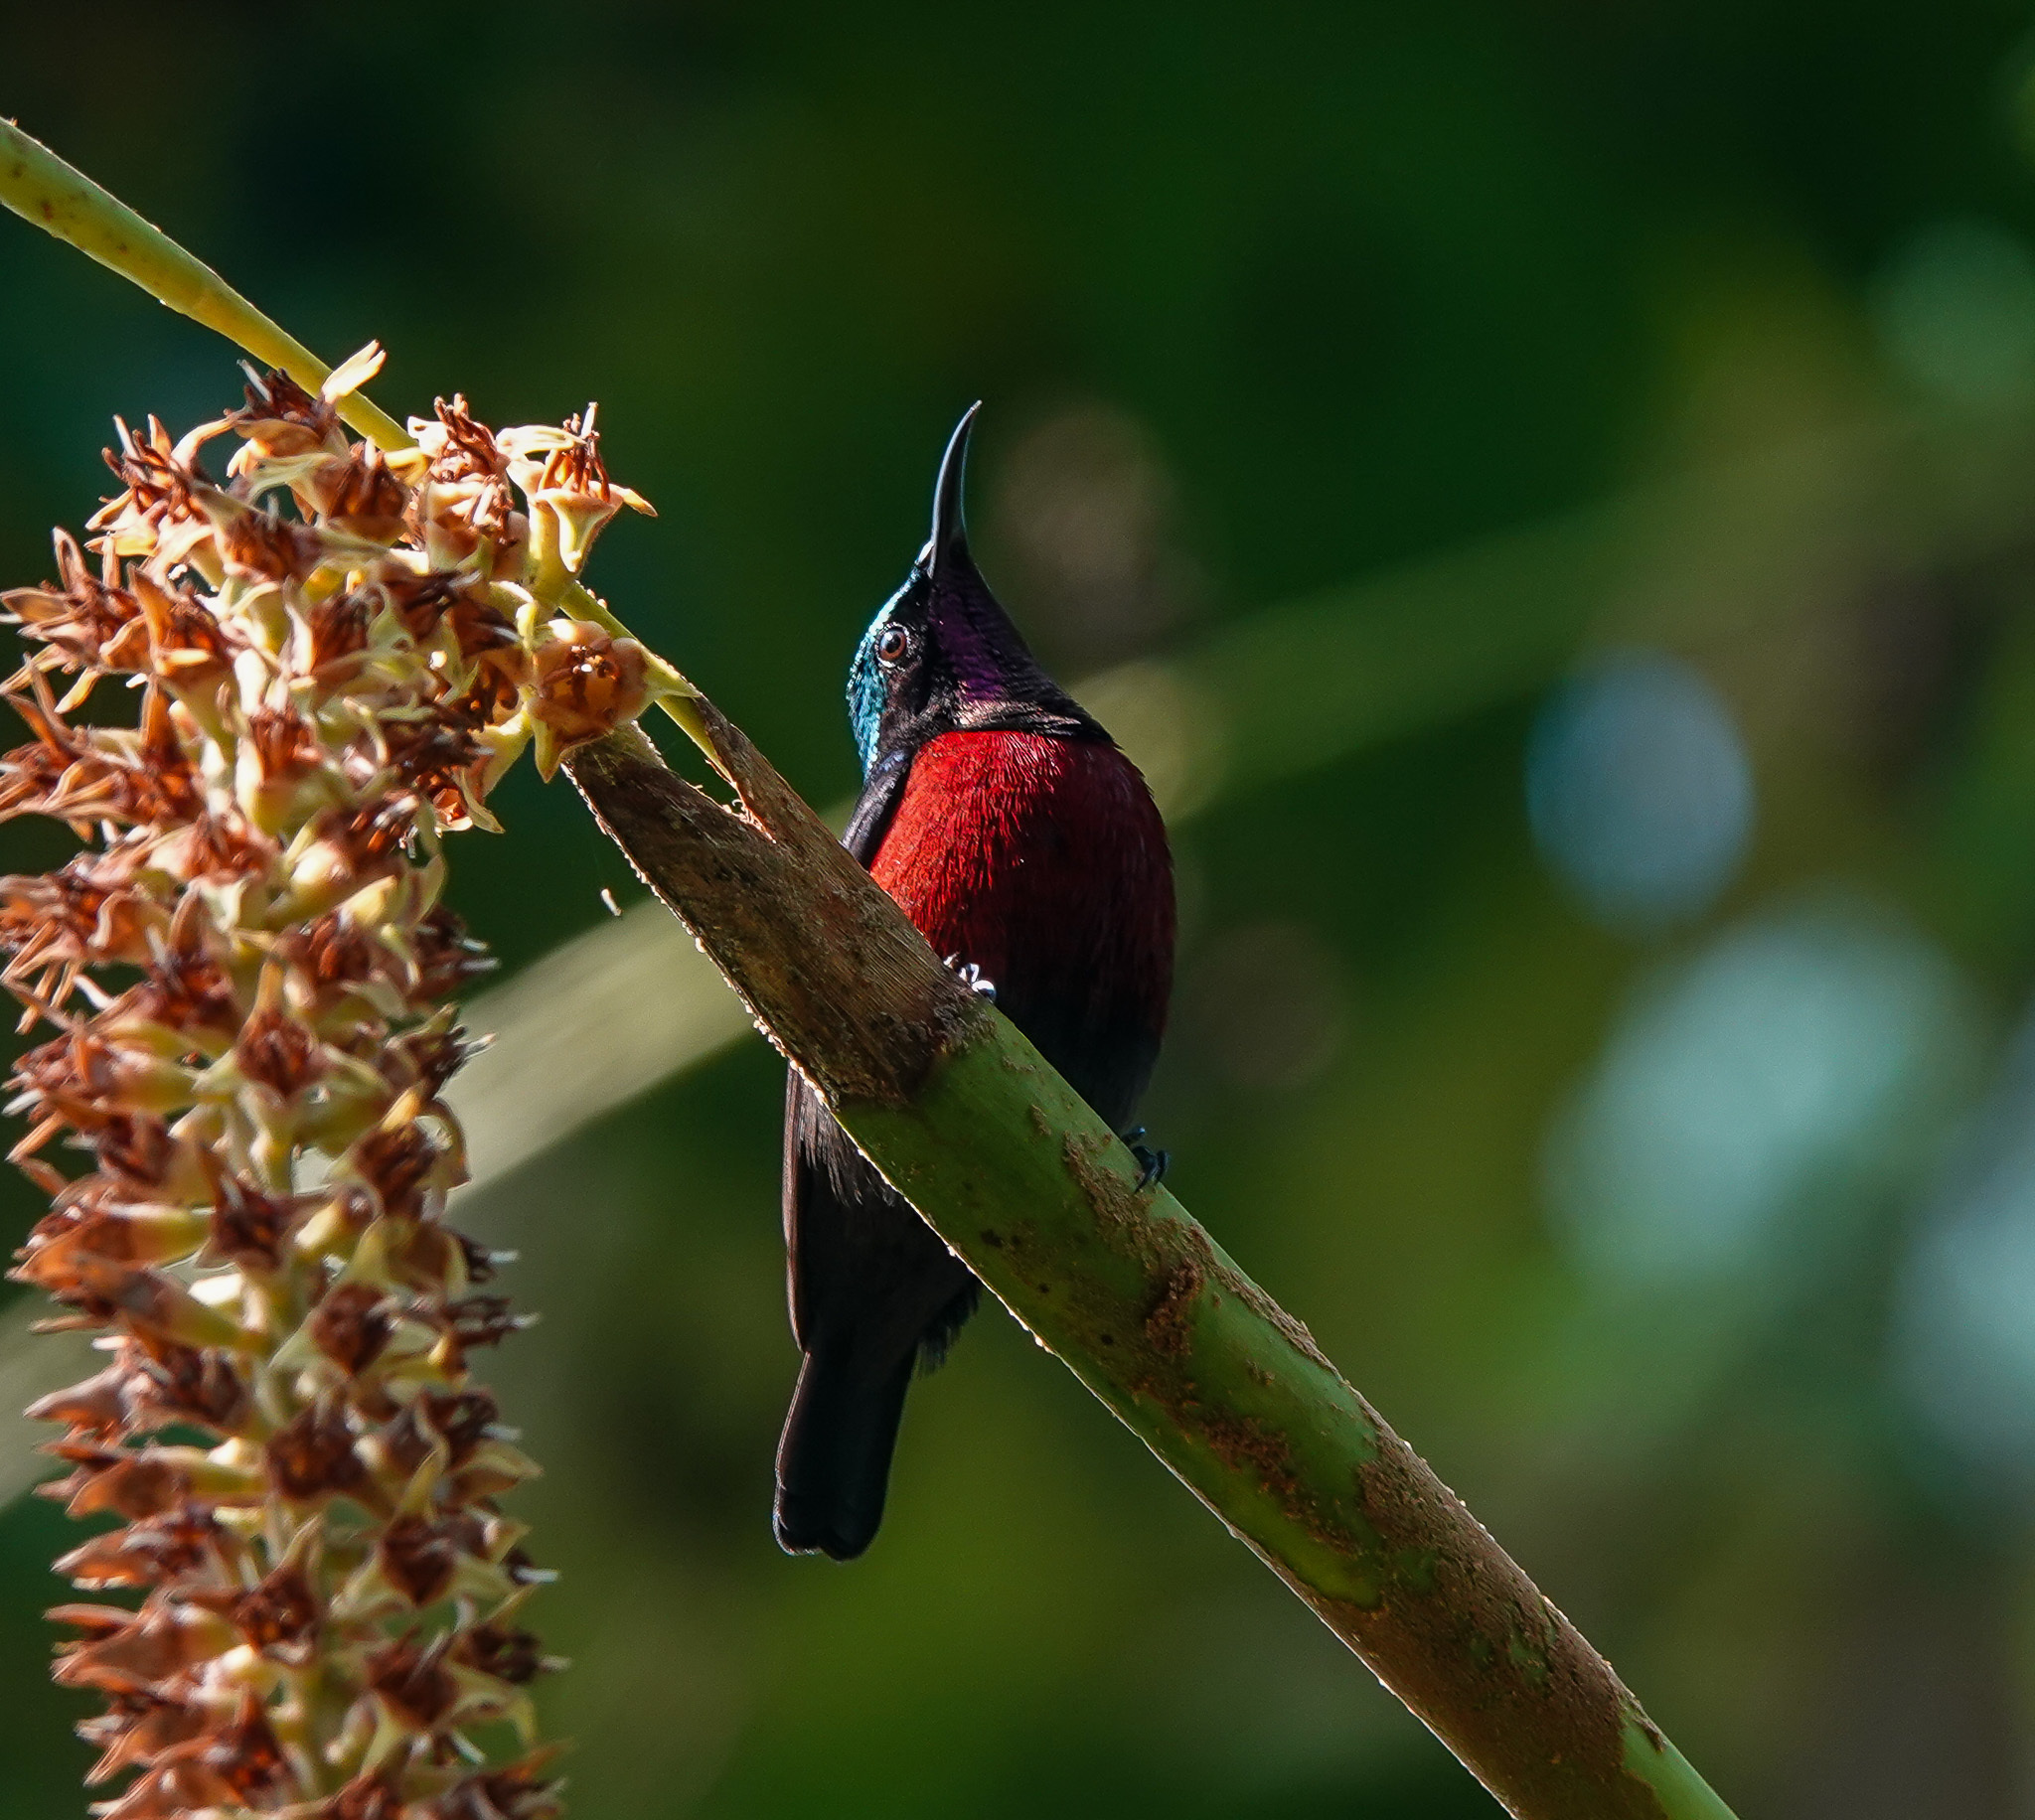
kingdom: Animalia
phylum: Chordata
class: Aves
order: Passeriformes
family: Nectariniidae
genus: Leptocoma
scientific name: Leptocoma brasiliana
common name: Van hasselt's sunbird
